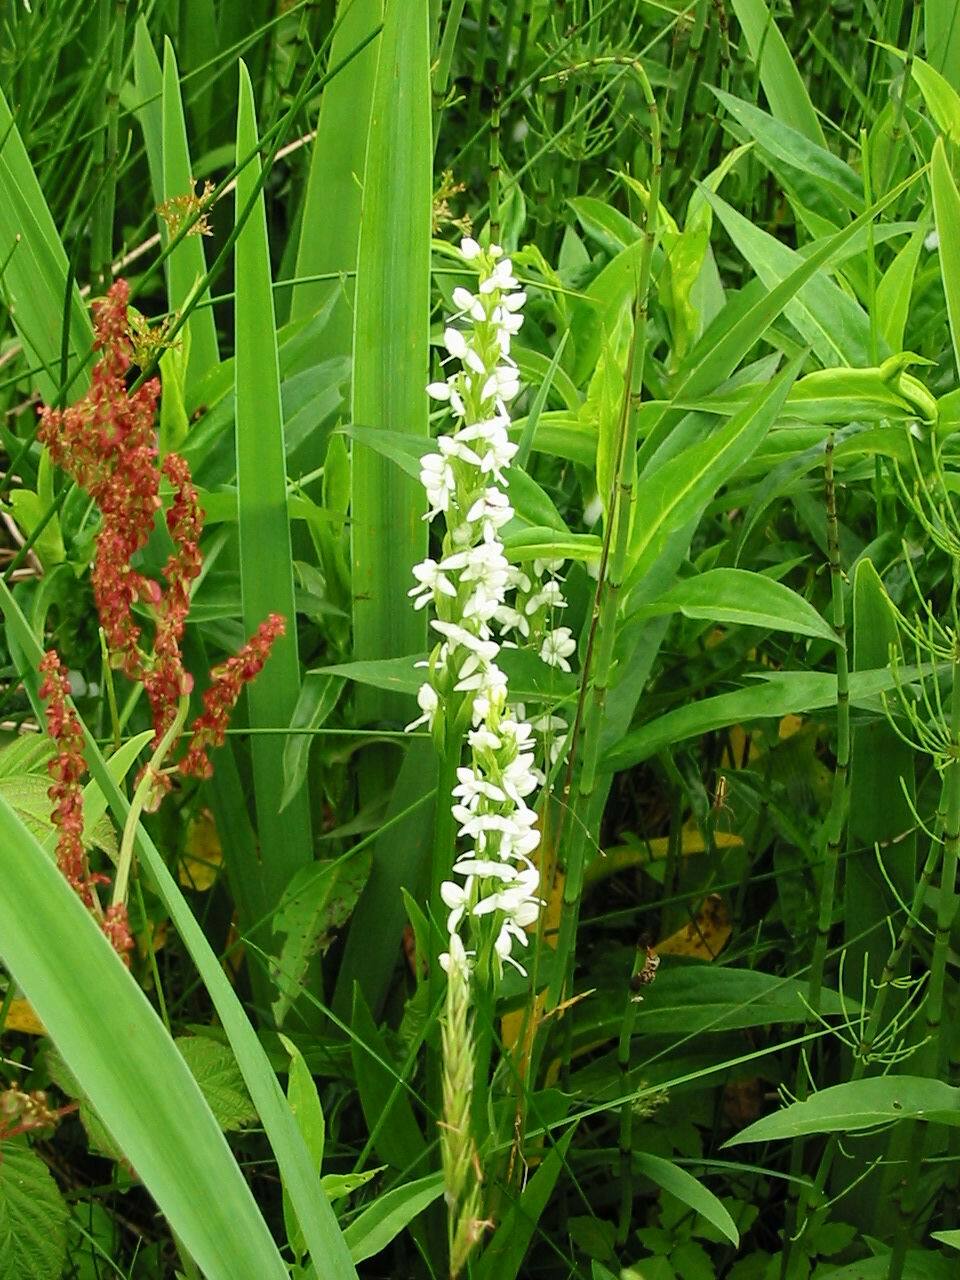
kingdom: Plantae
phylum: Tracheophyta
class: Liliopsida
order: Asparagales
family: Orchidaceae
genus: Platanthera
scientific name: Platanthera dilatata
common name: Bog candles
